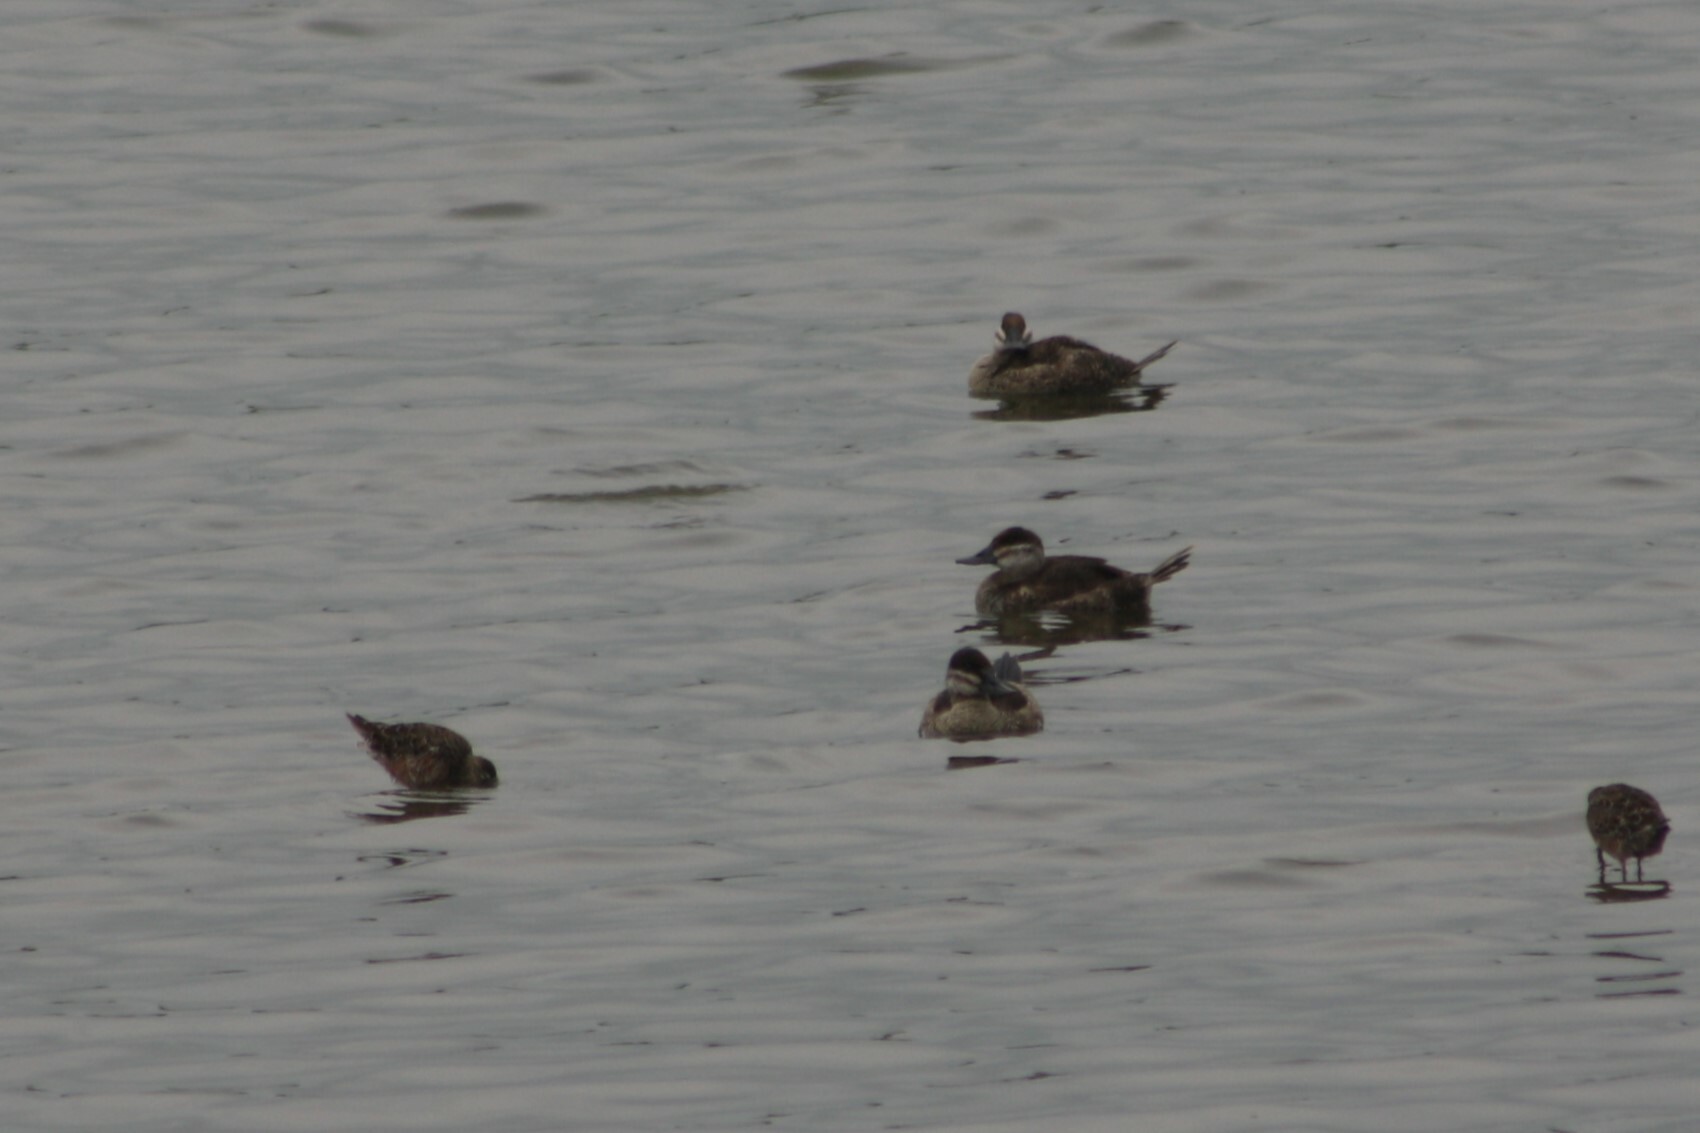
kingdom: Animalia
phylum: Chordata
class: Aves
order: Anseriformes
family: Anatidae
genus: Oxyura
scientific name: Oxyura jamaicensis
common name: Ruddy duck
